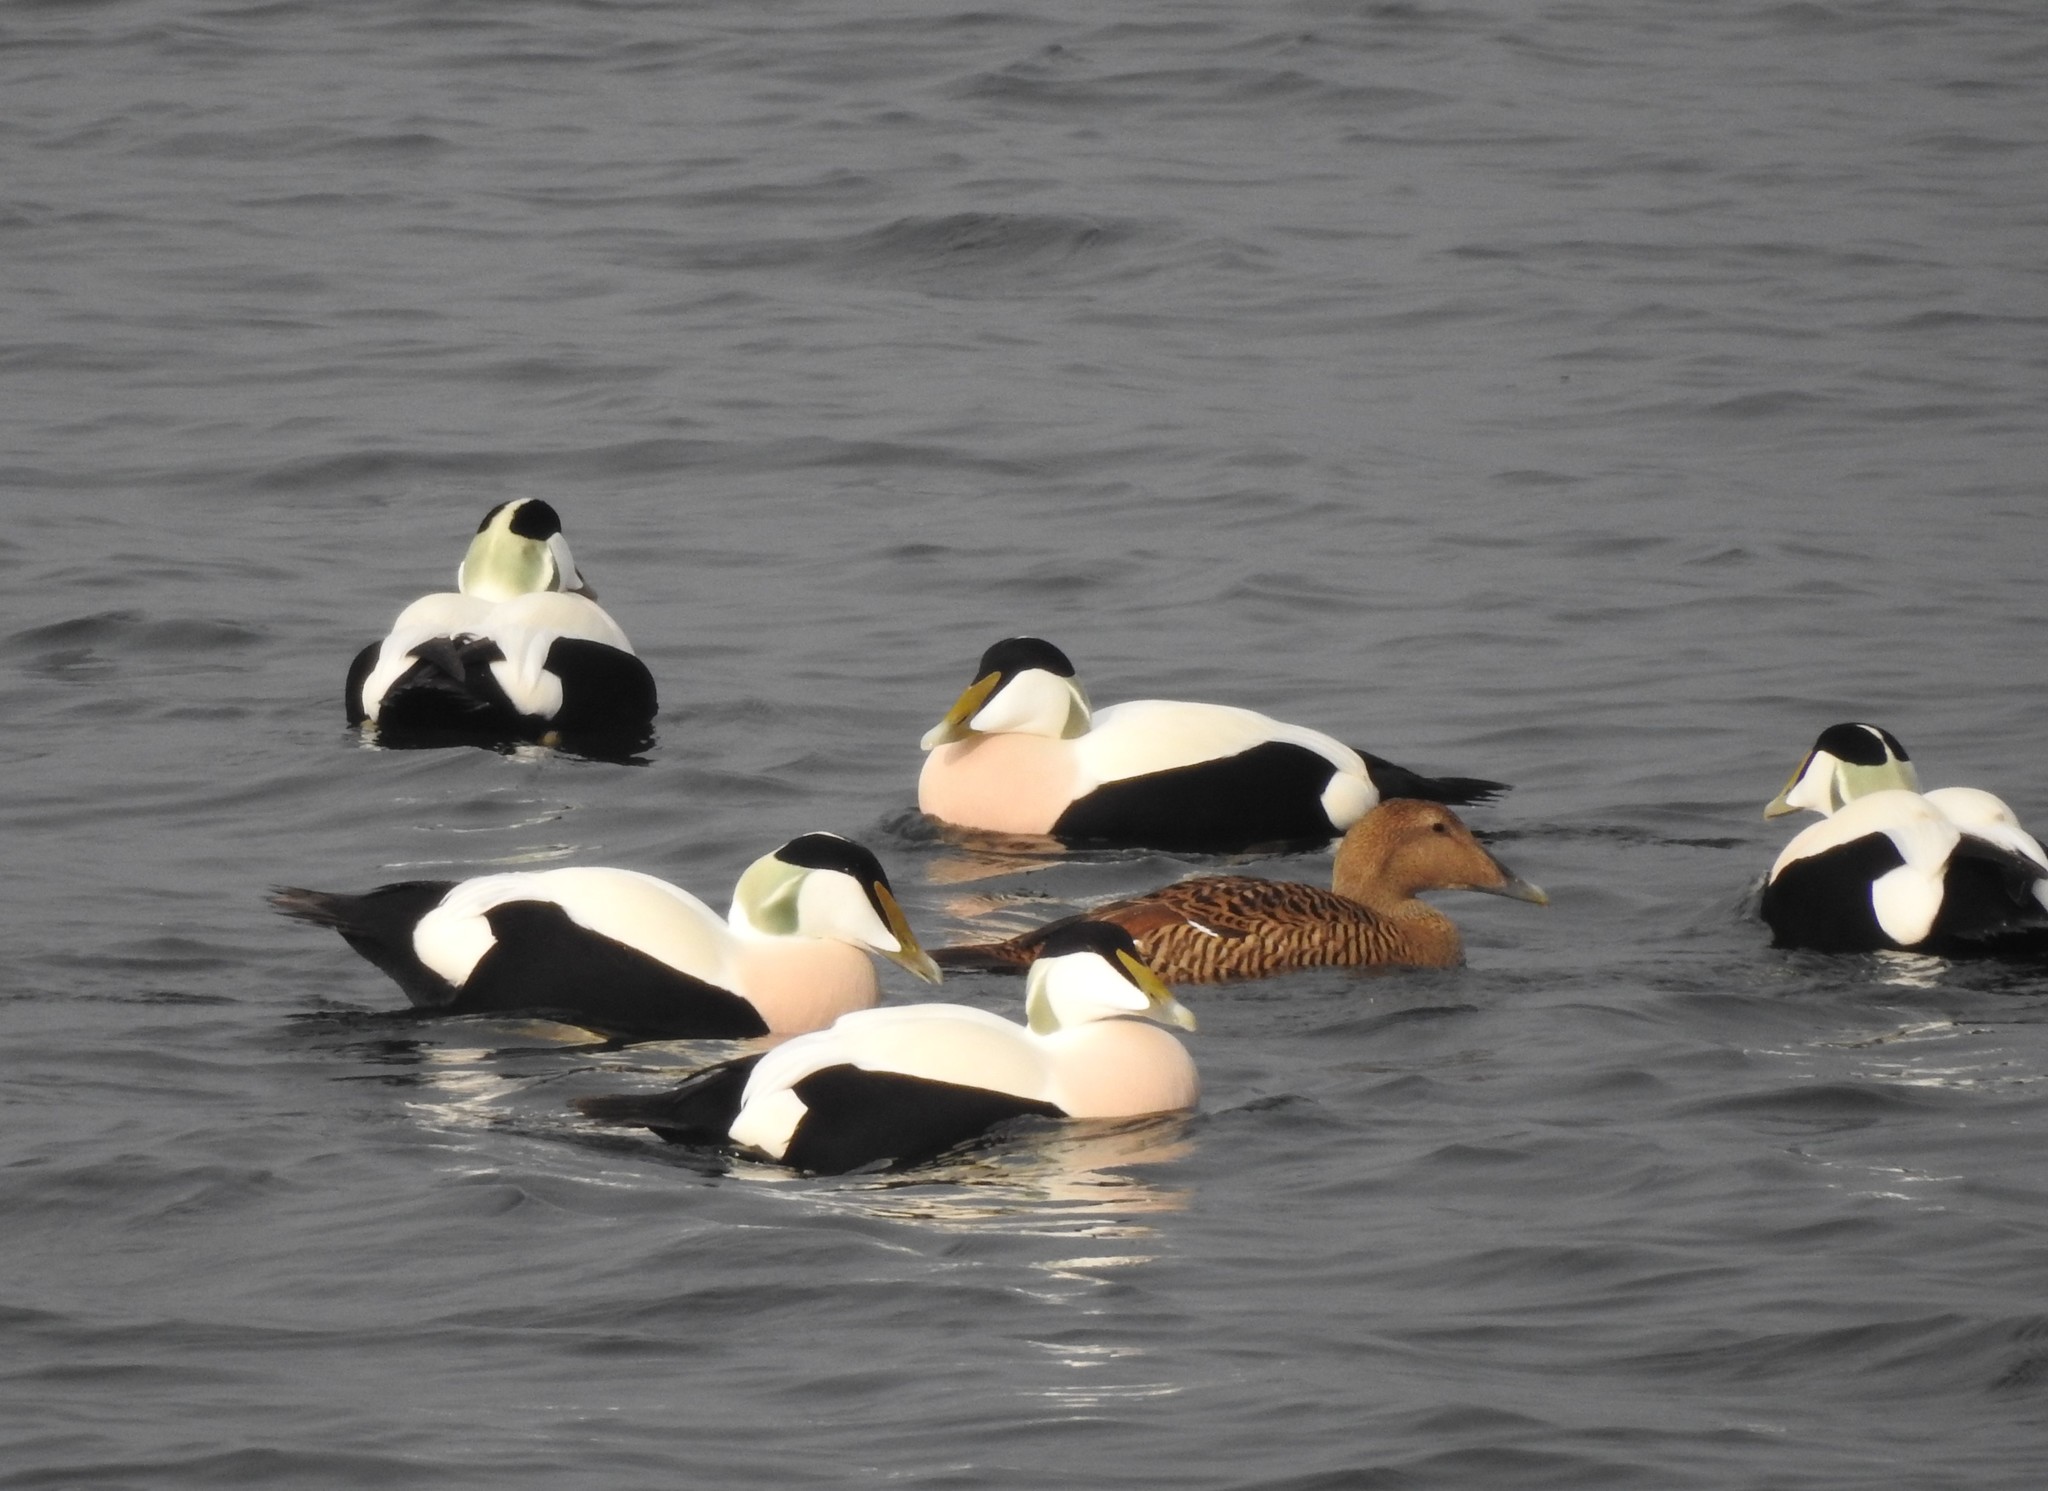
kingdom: Animalia
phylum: Chordata
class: Aves
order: Anseriformes
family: Anatidae
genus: Somateria
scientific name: Somateria mollissima
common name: Common eider
